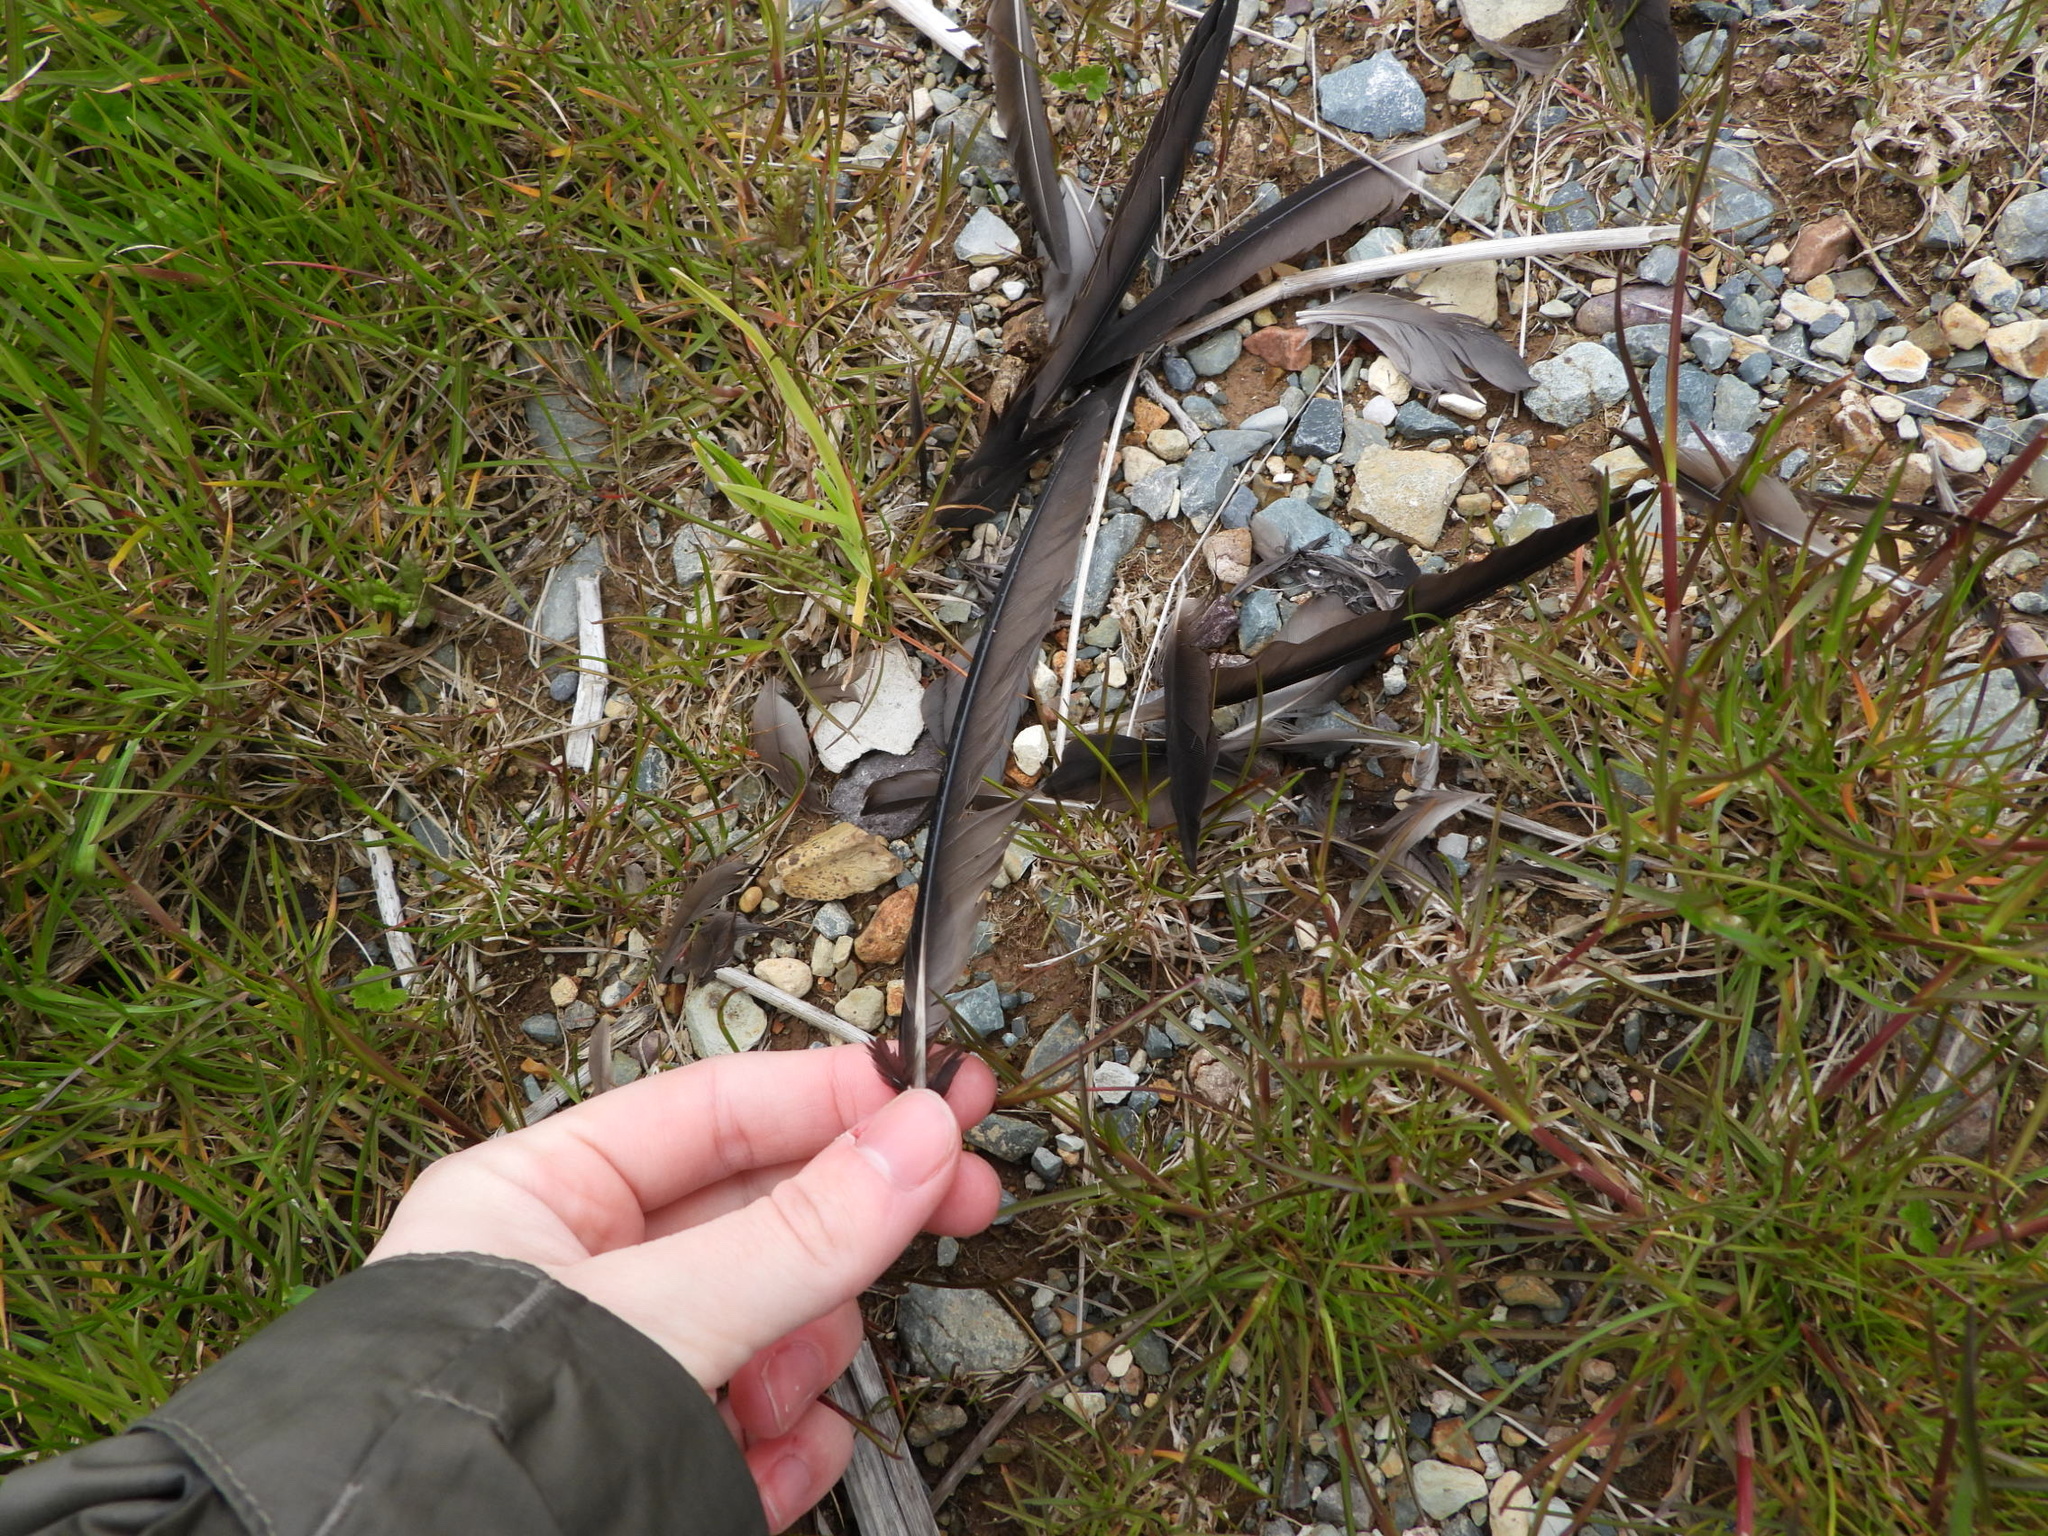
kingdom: Animalia
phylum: Chordata
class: Aves
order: Procellariiformes
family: Procellariidae
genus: Puffinus
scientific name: Puffinus griseus
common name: Sooty shearwater
